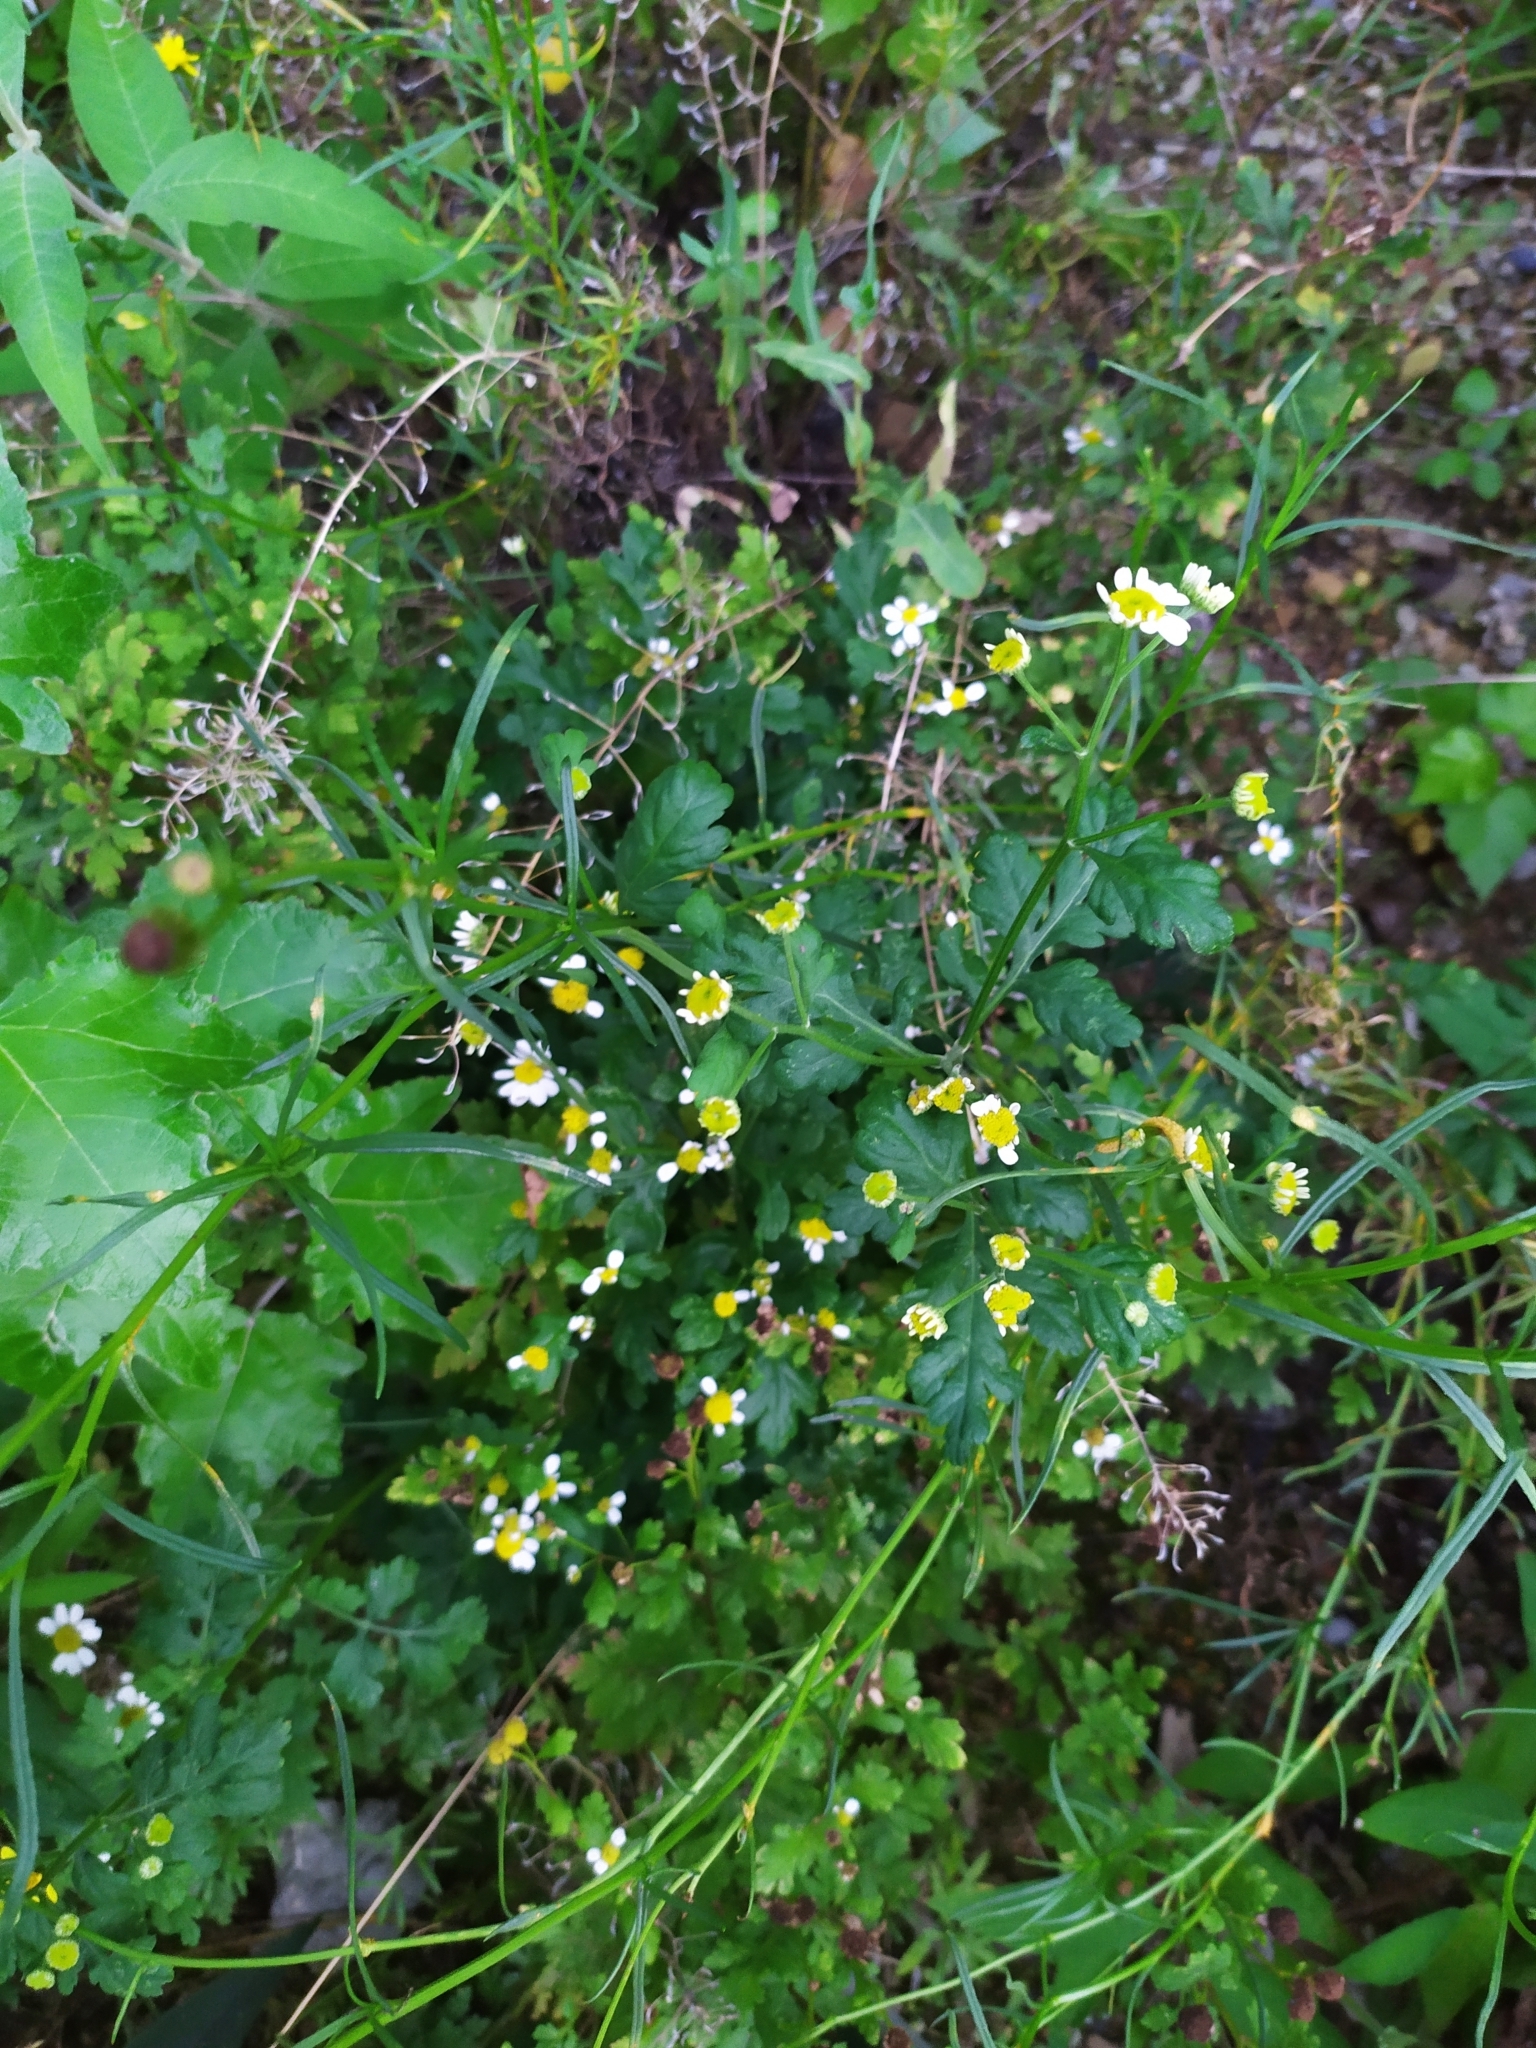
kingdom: Plantae
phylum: Tracheophyta
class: Magnoliopsida
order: Asterales
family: Asteraceae
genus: Tanacetum
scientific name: Tanacetum parthenium
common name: Feverfew
